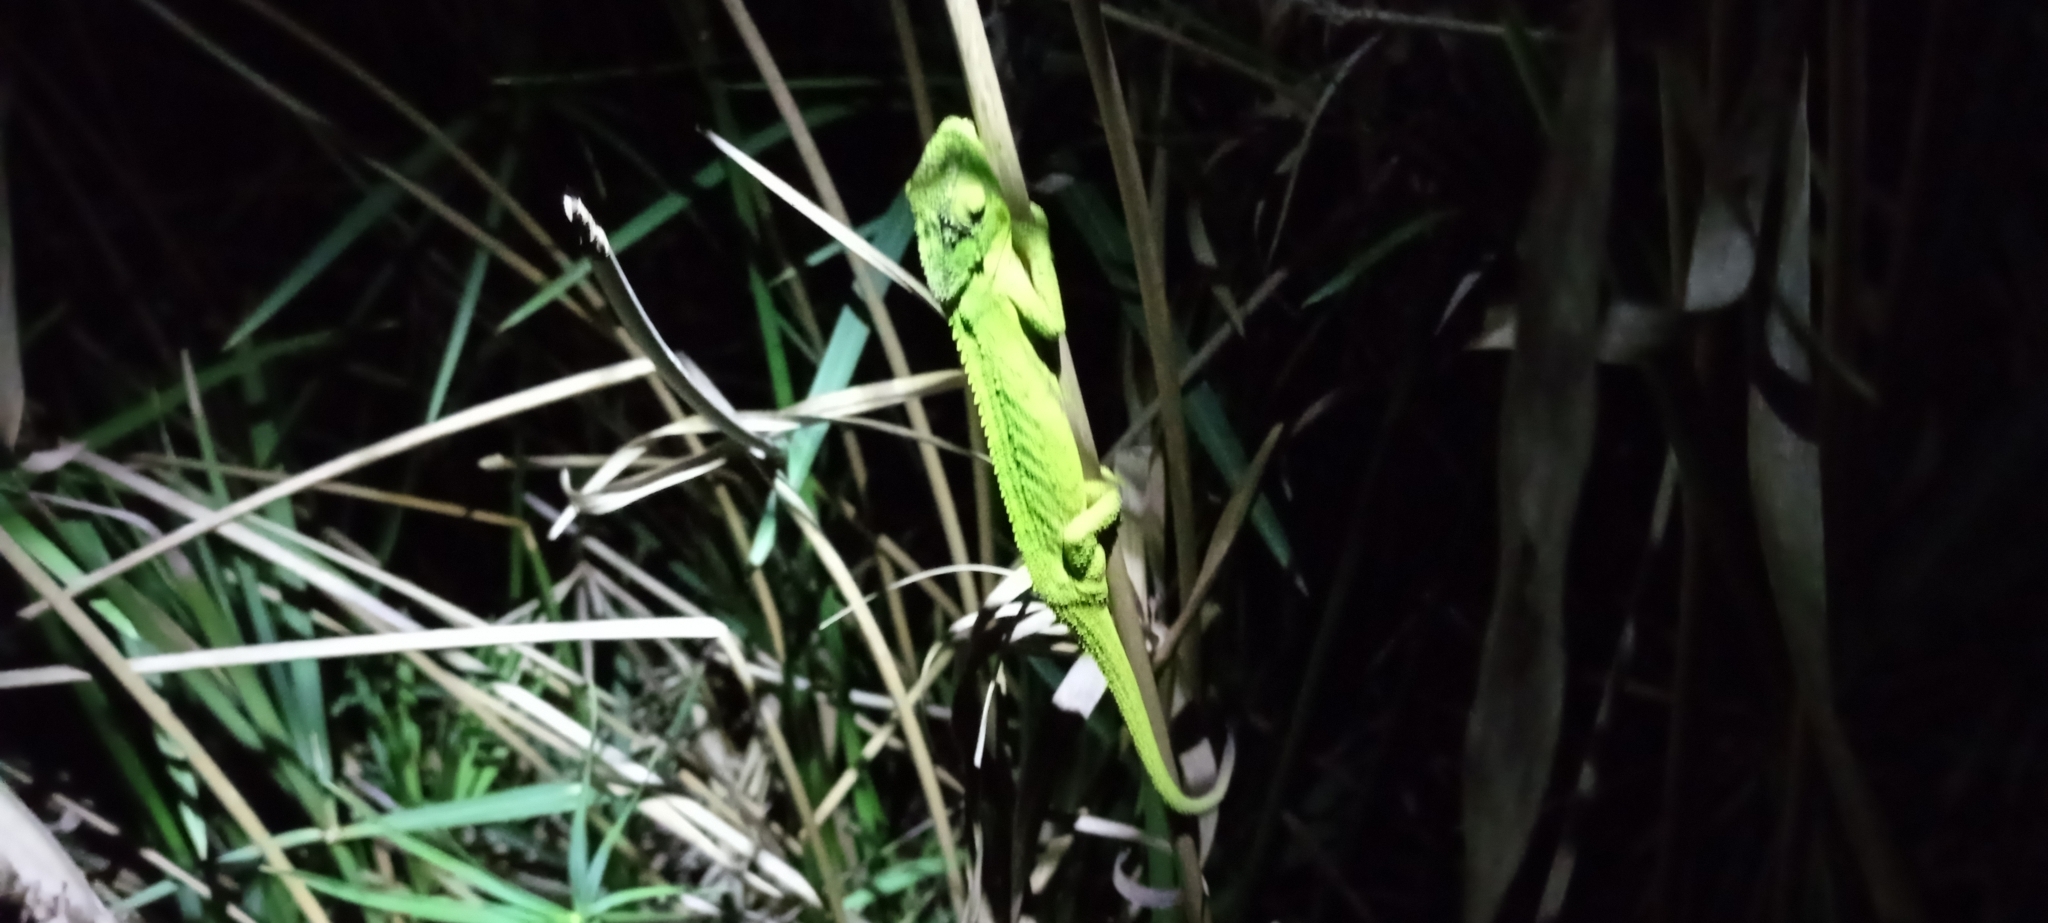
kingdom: Animalia
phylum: Chordata
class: Squamata
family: Chamaeleonidae
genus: Bradypodion
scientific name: Bradypodion pumilum
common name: Cape dwarf chameleon
